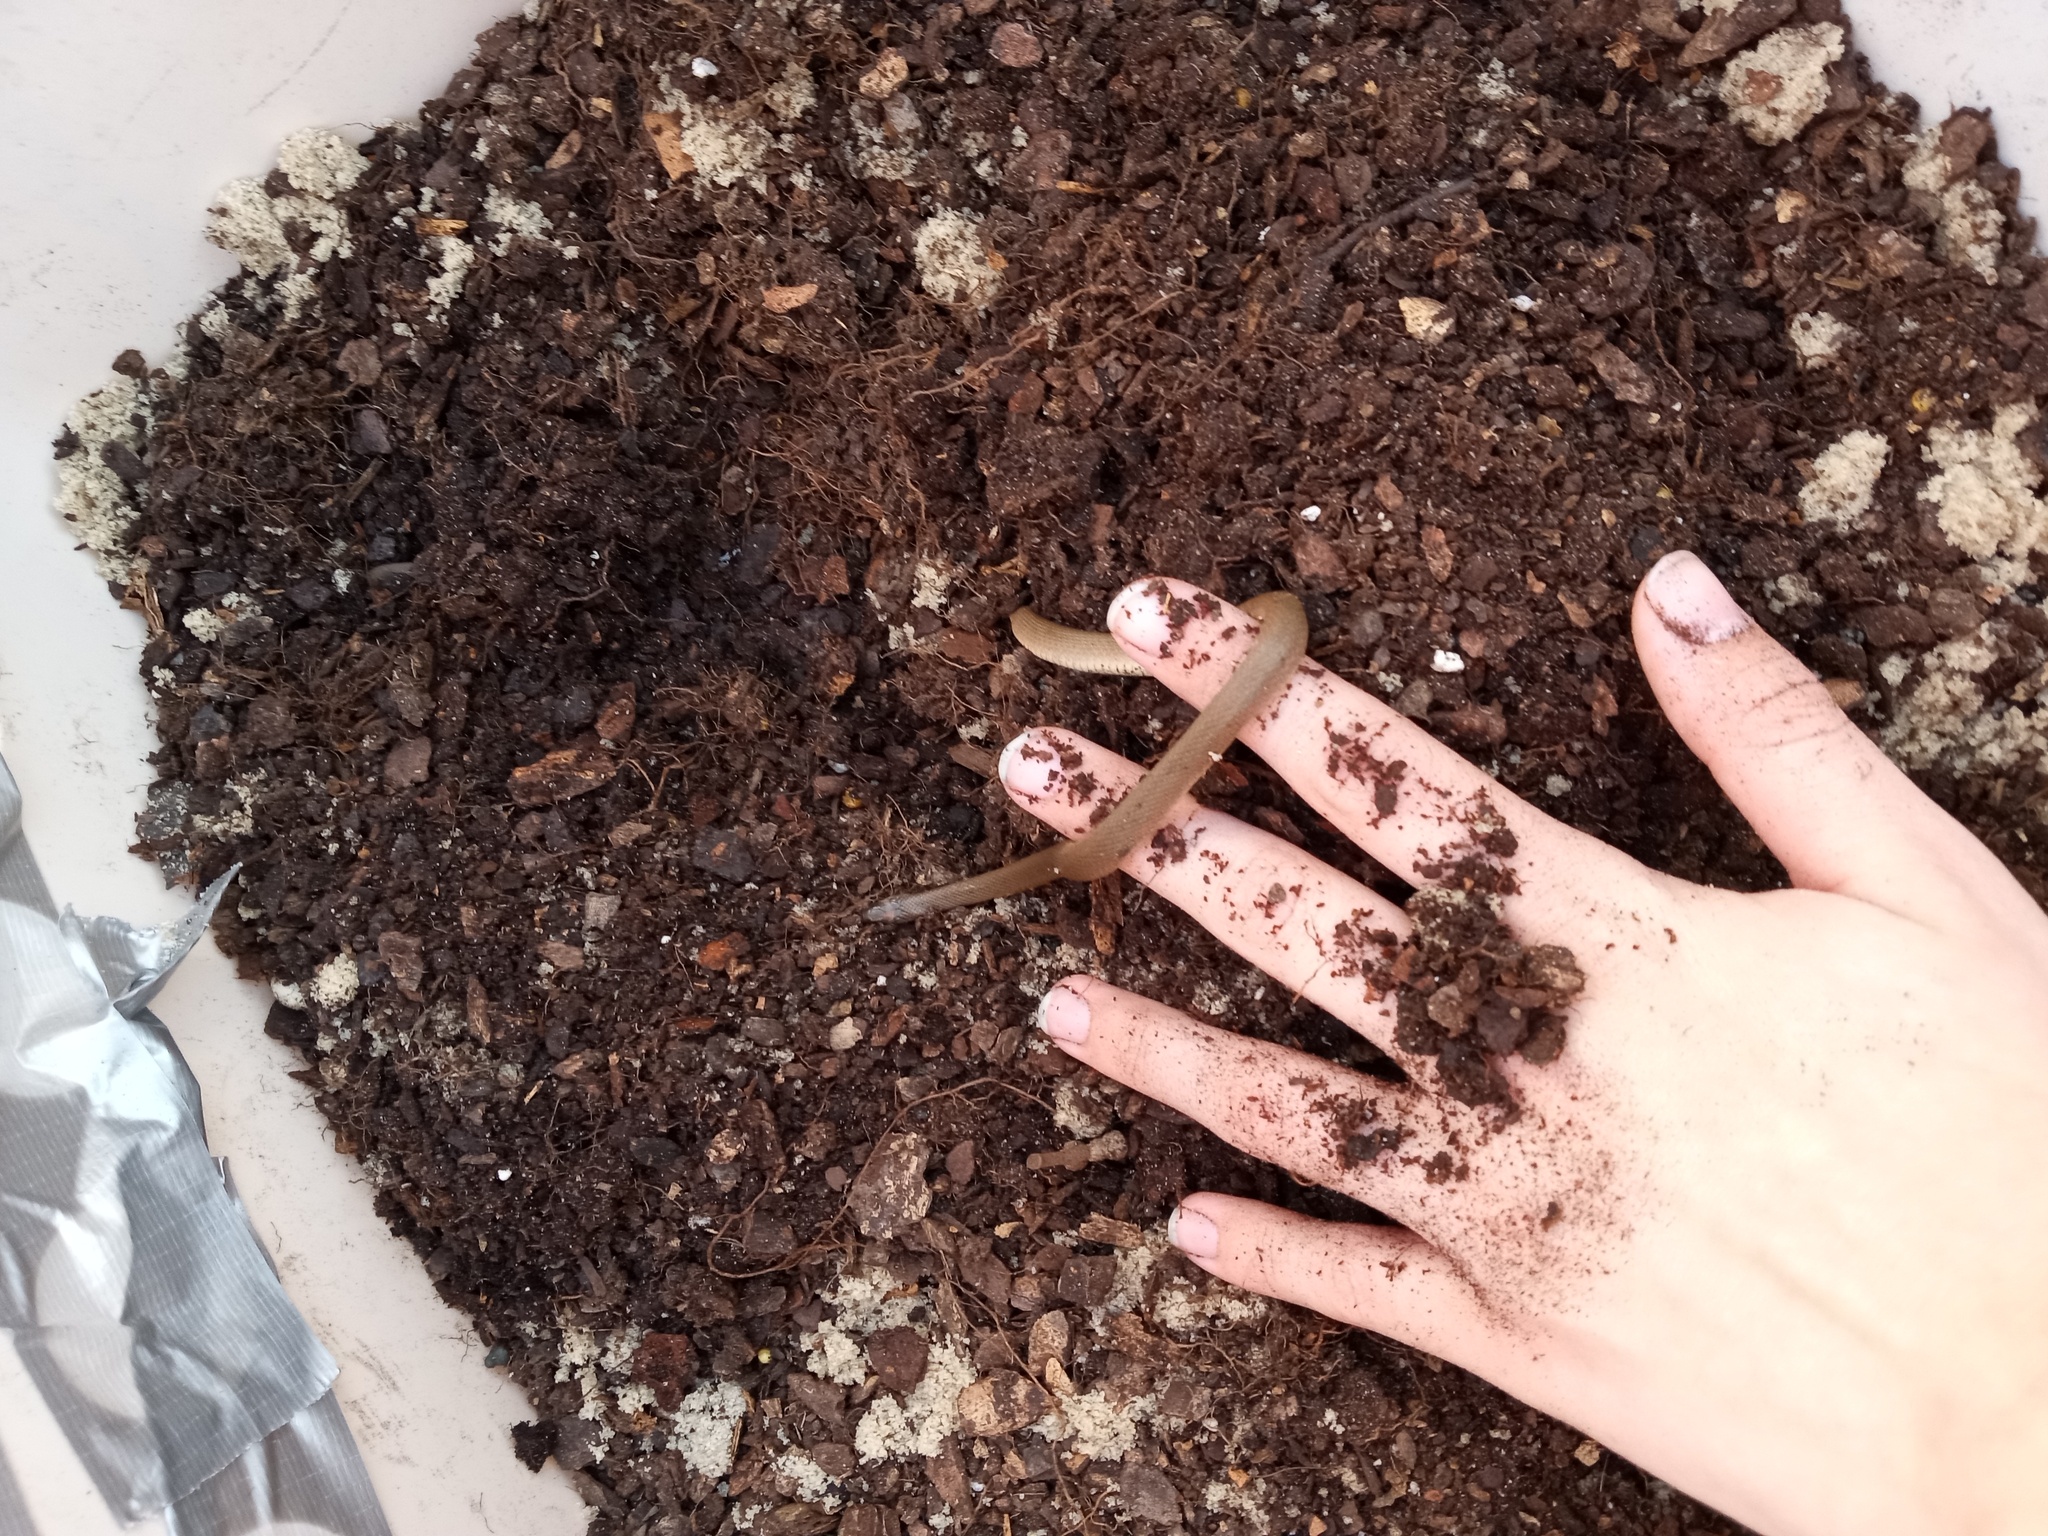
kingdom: Animalia
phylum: Chordata
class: Squamata
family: Colubridae
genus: Haldea
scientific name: Haldea striatula
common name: Rough earth snake
